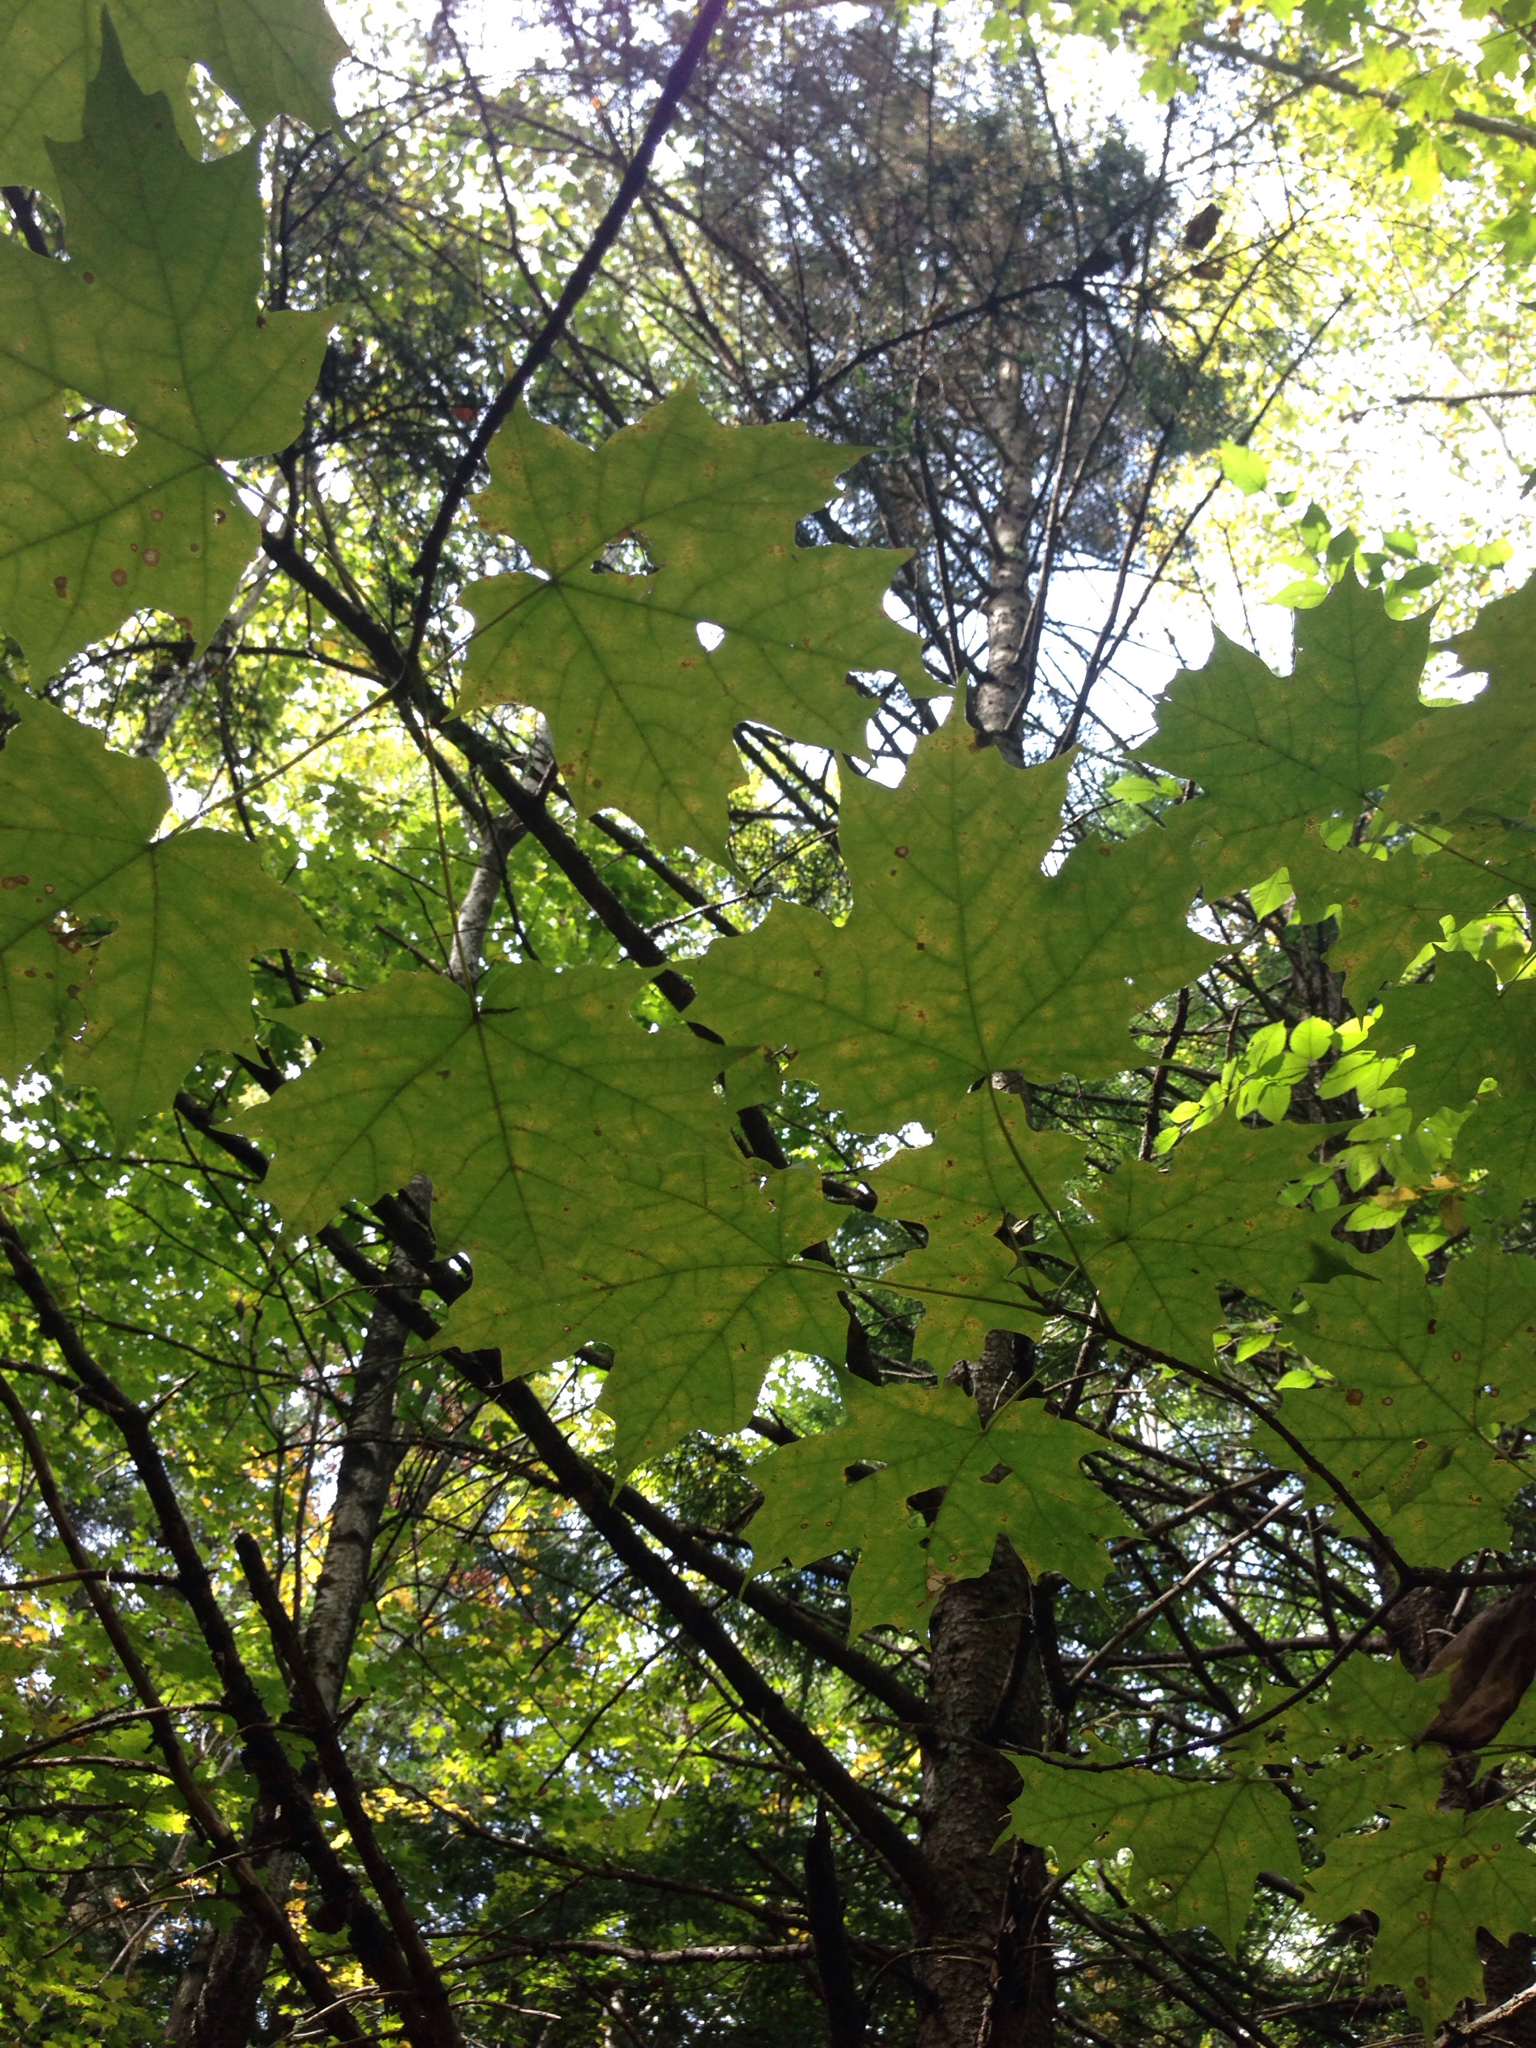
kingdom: Plantae
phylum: Tracheophyta
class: Magnoliopsida
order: Sapindales
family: Sapindaceae
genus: Acer
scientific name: Acer saccharum
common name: Sugar maple
